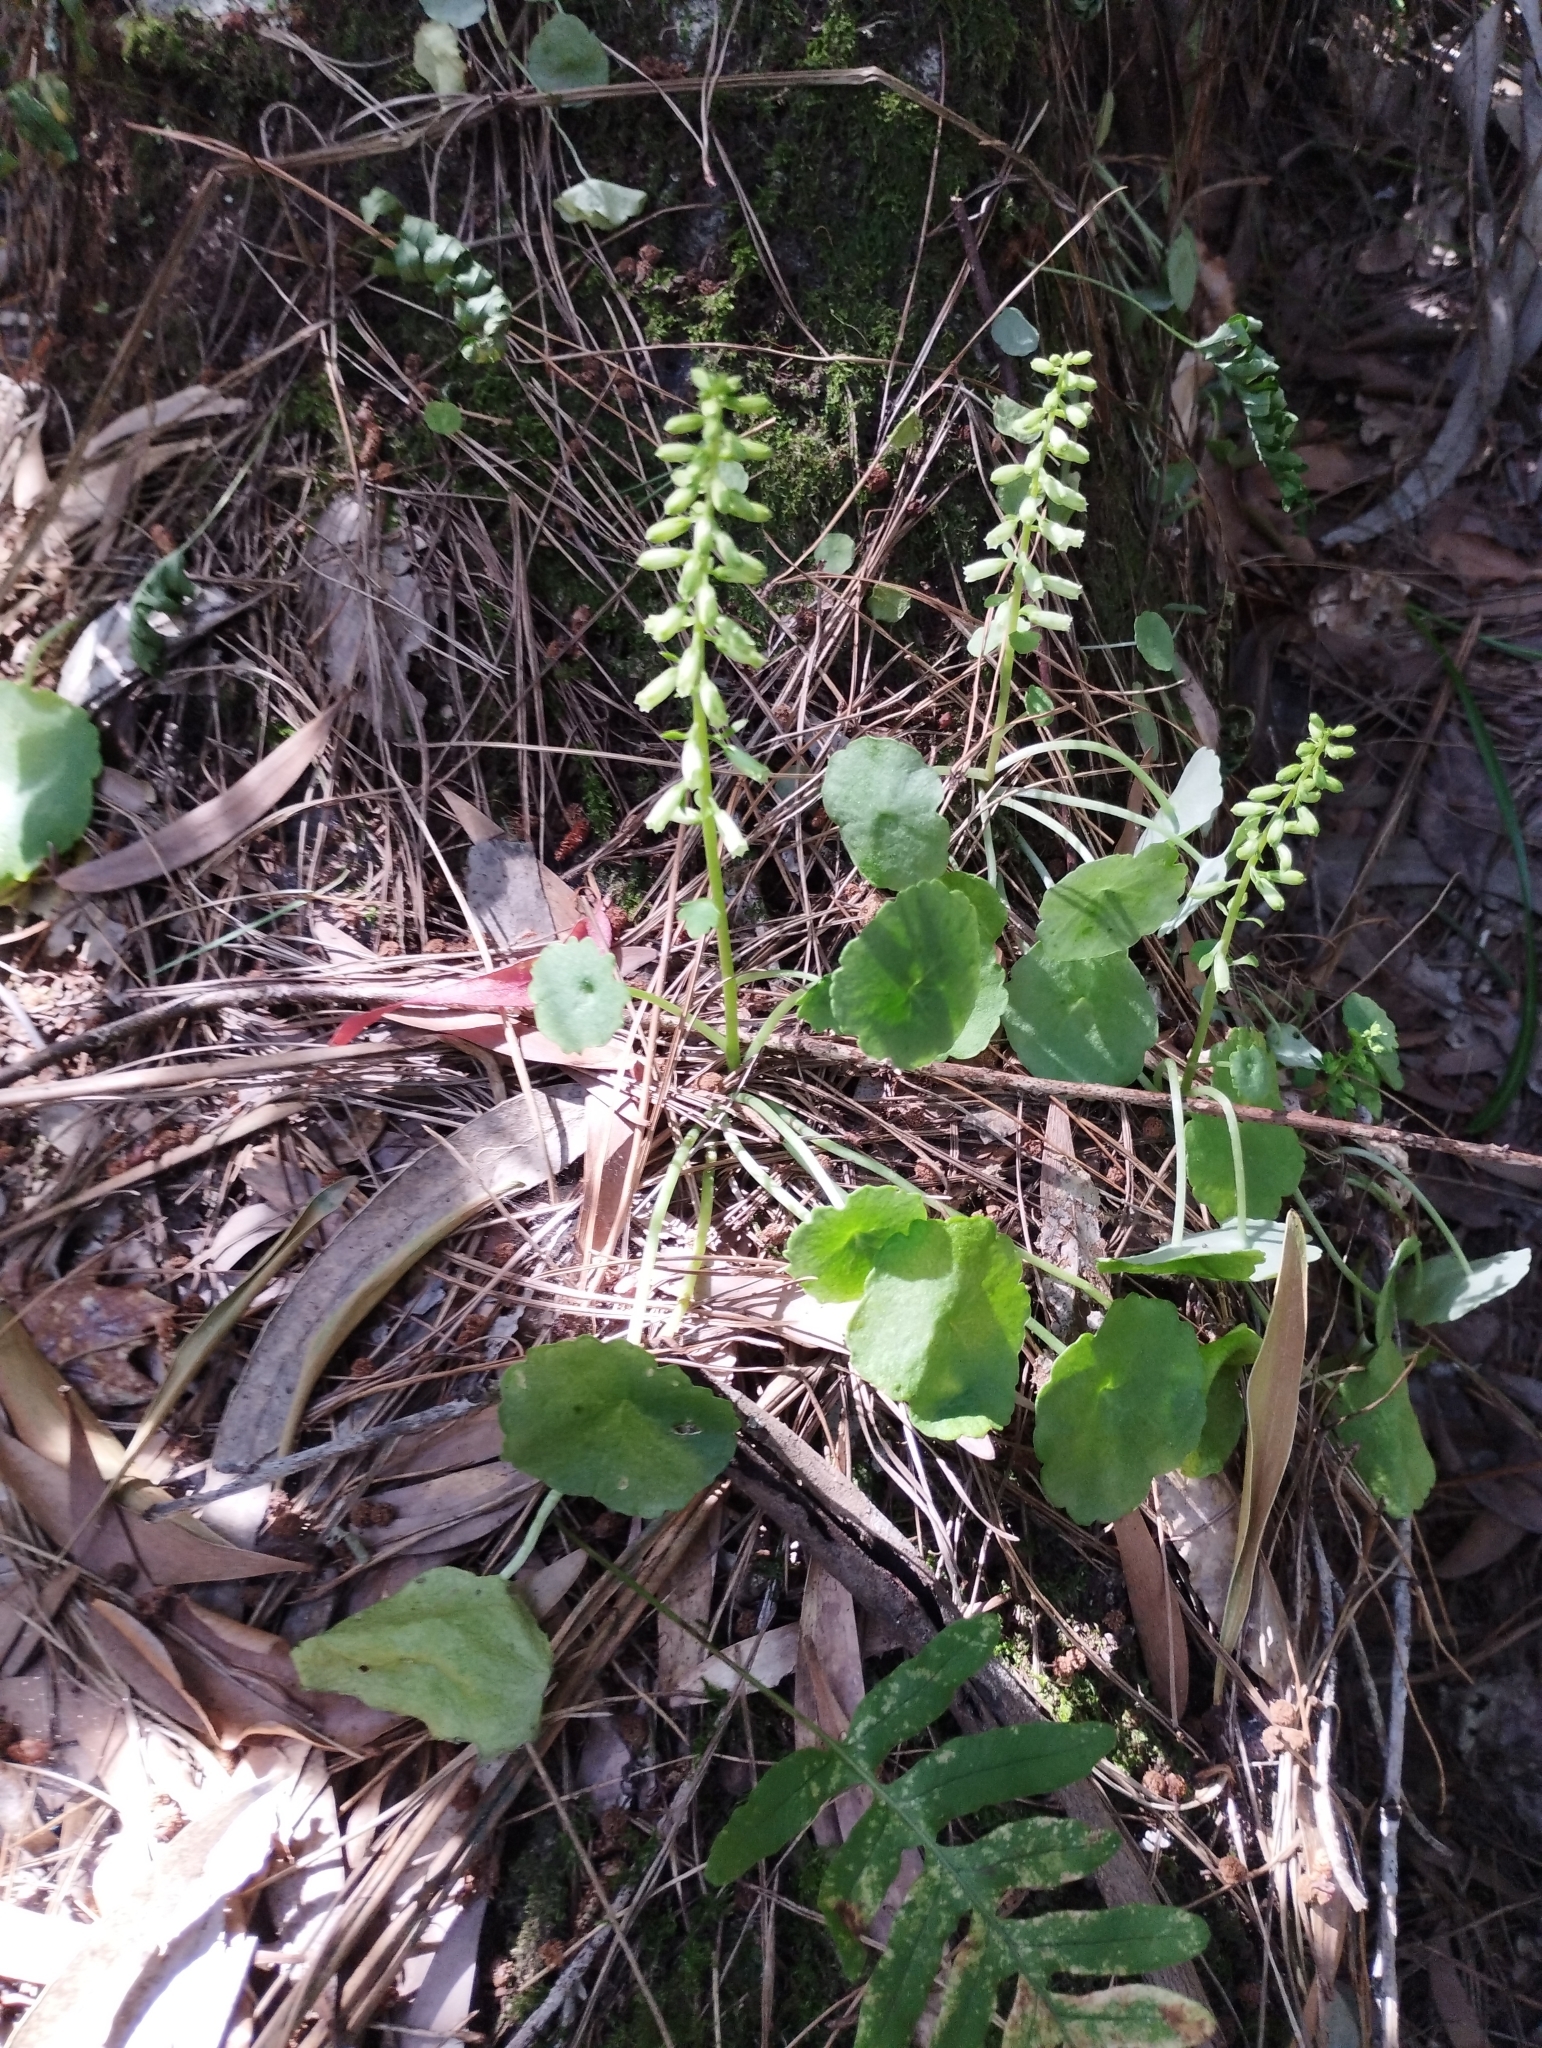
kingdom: Plantae
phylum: Tracheophyta
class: Magnoliopsida
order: Saxifragales
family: Crassulaceae
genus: Umbilicus
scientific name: Umbilicus rupestris
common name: Navelwort
